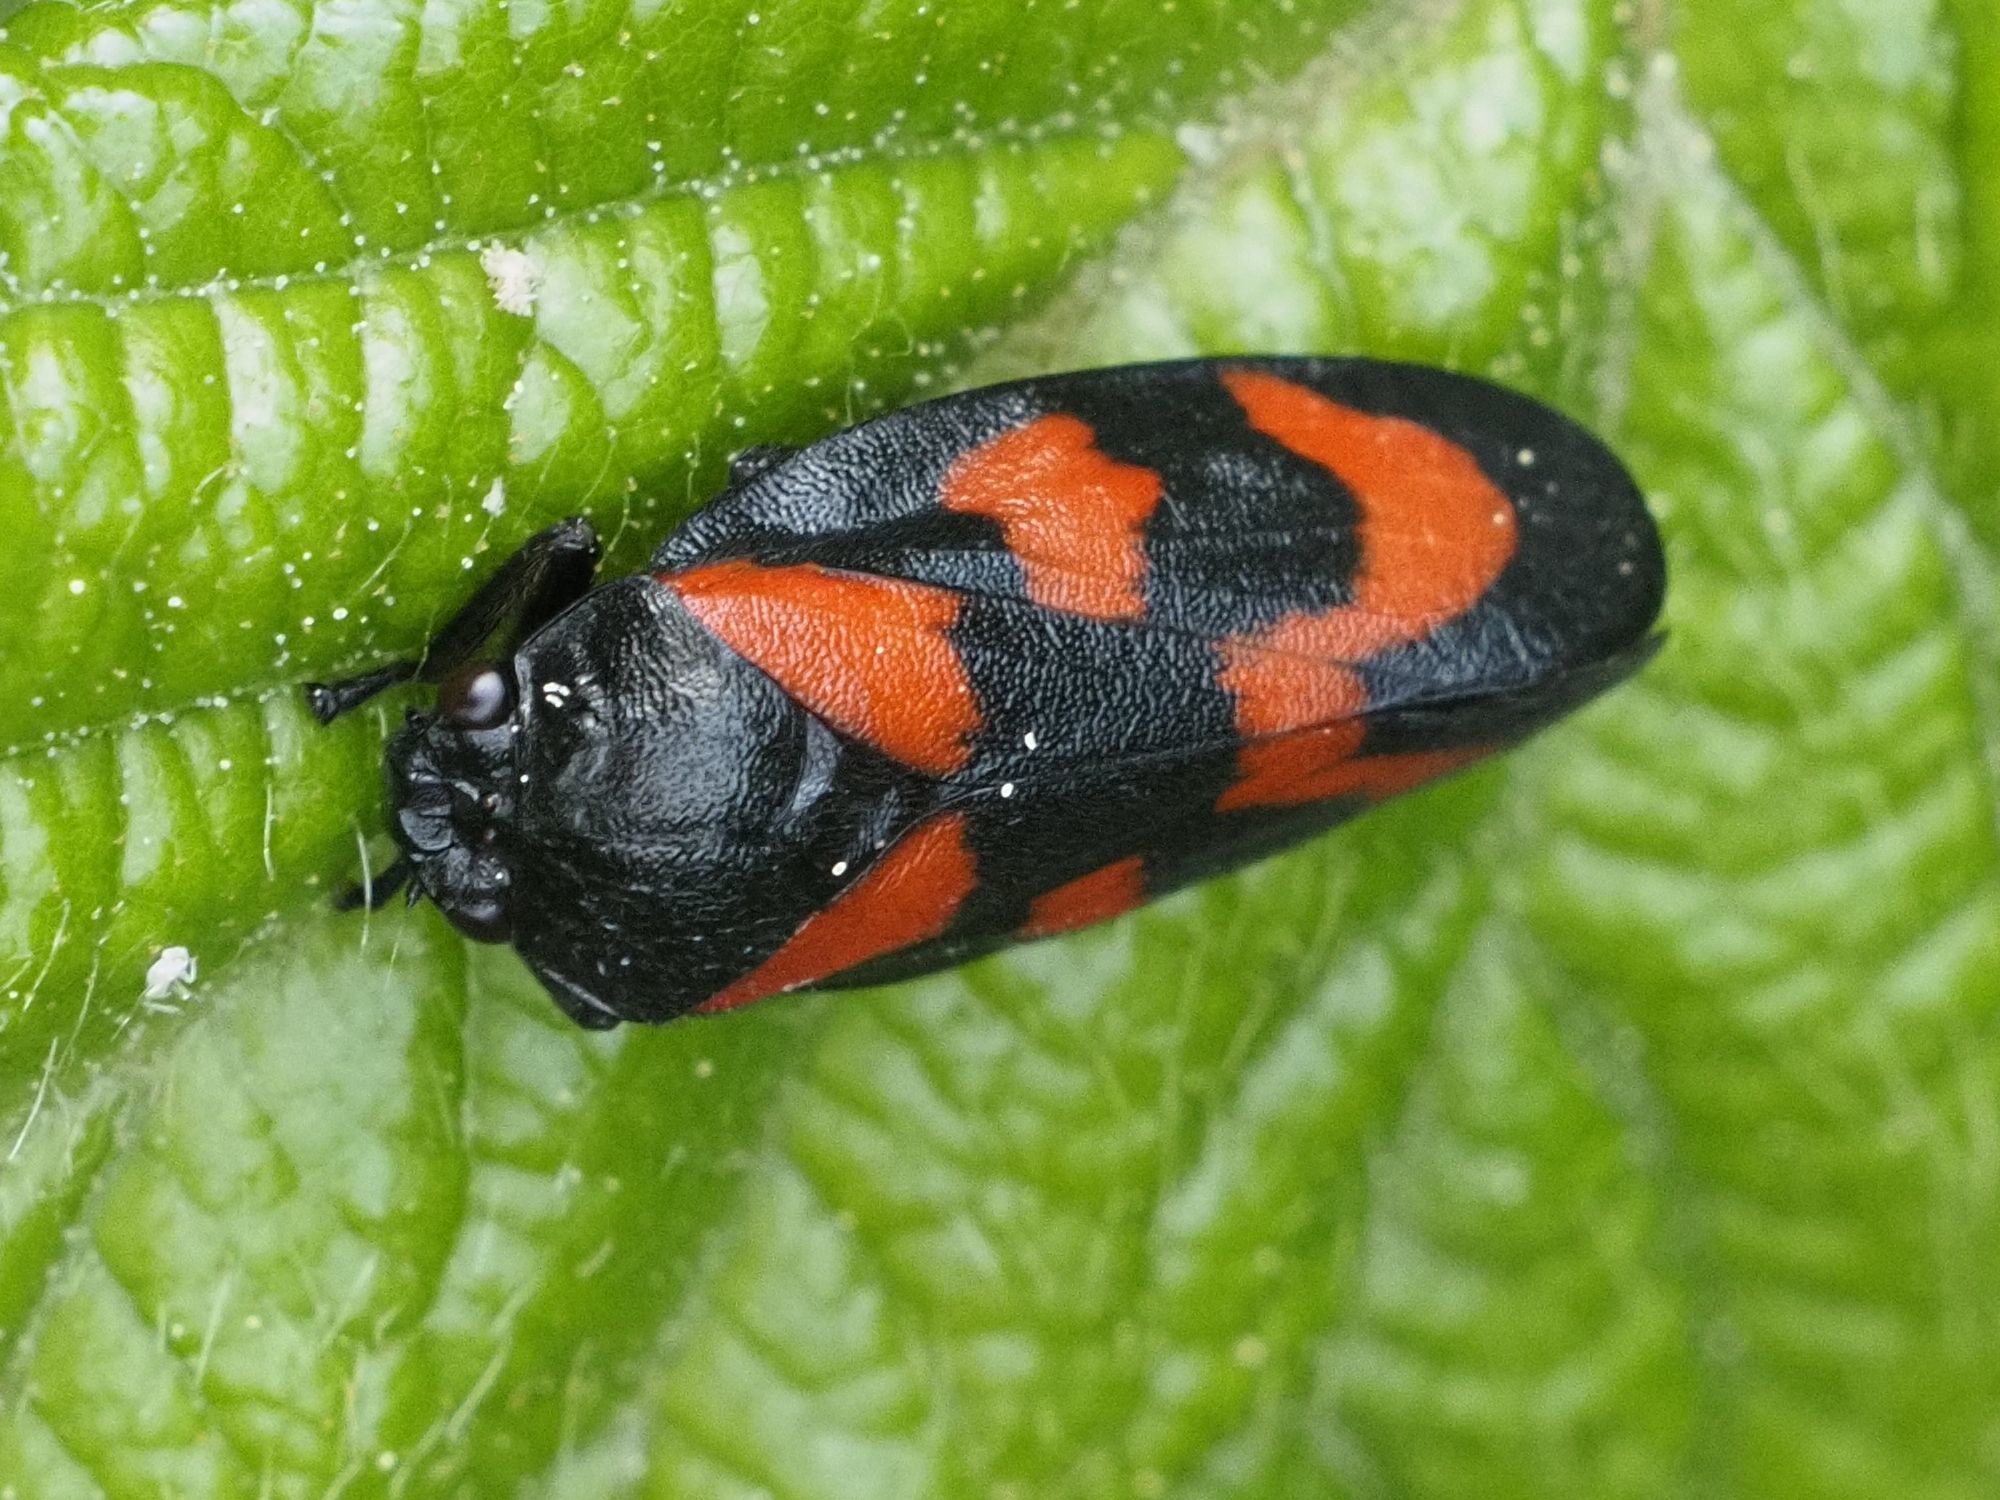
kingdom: Animalia
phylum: Arthropoda
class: Insecta
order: Hemiptera
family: Cercopidae
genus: Cercopis
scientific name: Cercopis vulnerata
